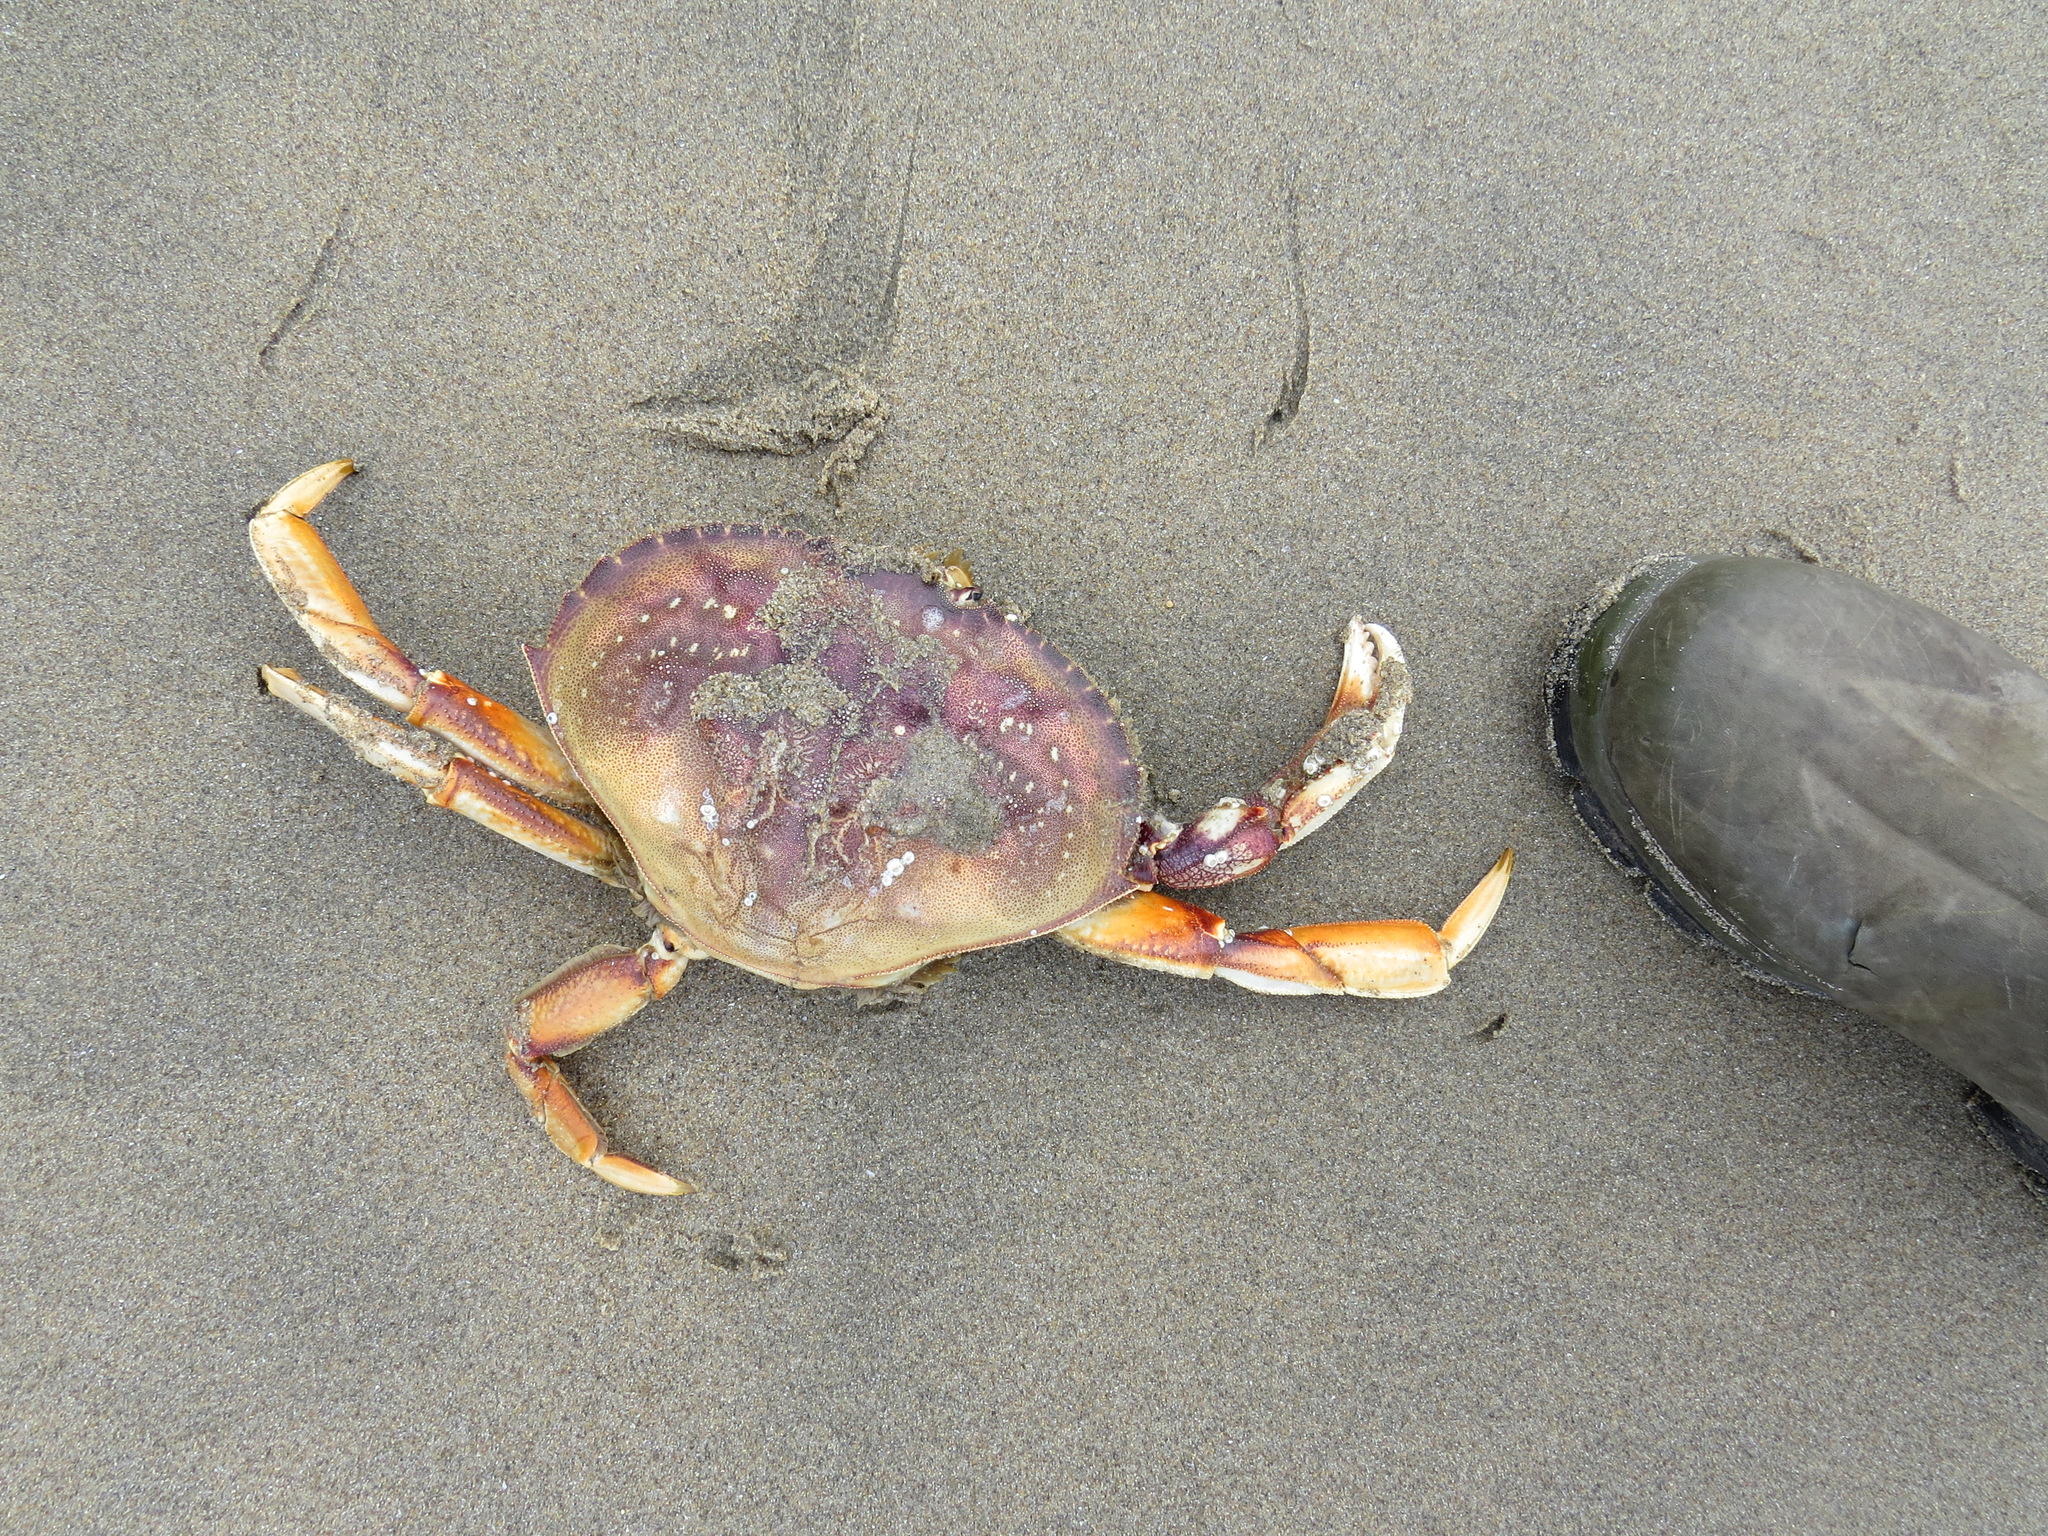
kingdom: Animalia
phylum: Arthropoda
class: Malacostraca
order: Decapoda
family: Cancridae
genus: Metacarcinus
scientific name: Metacarcinus magister
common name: Californian crab
